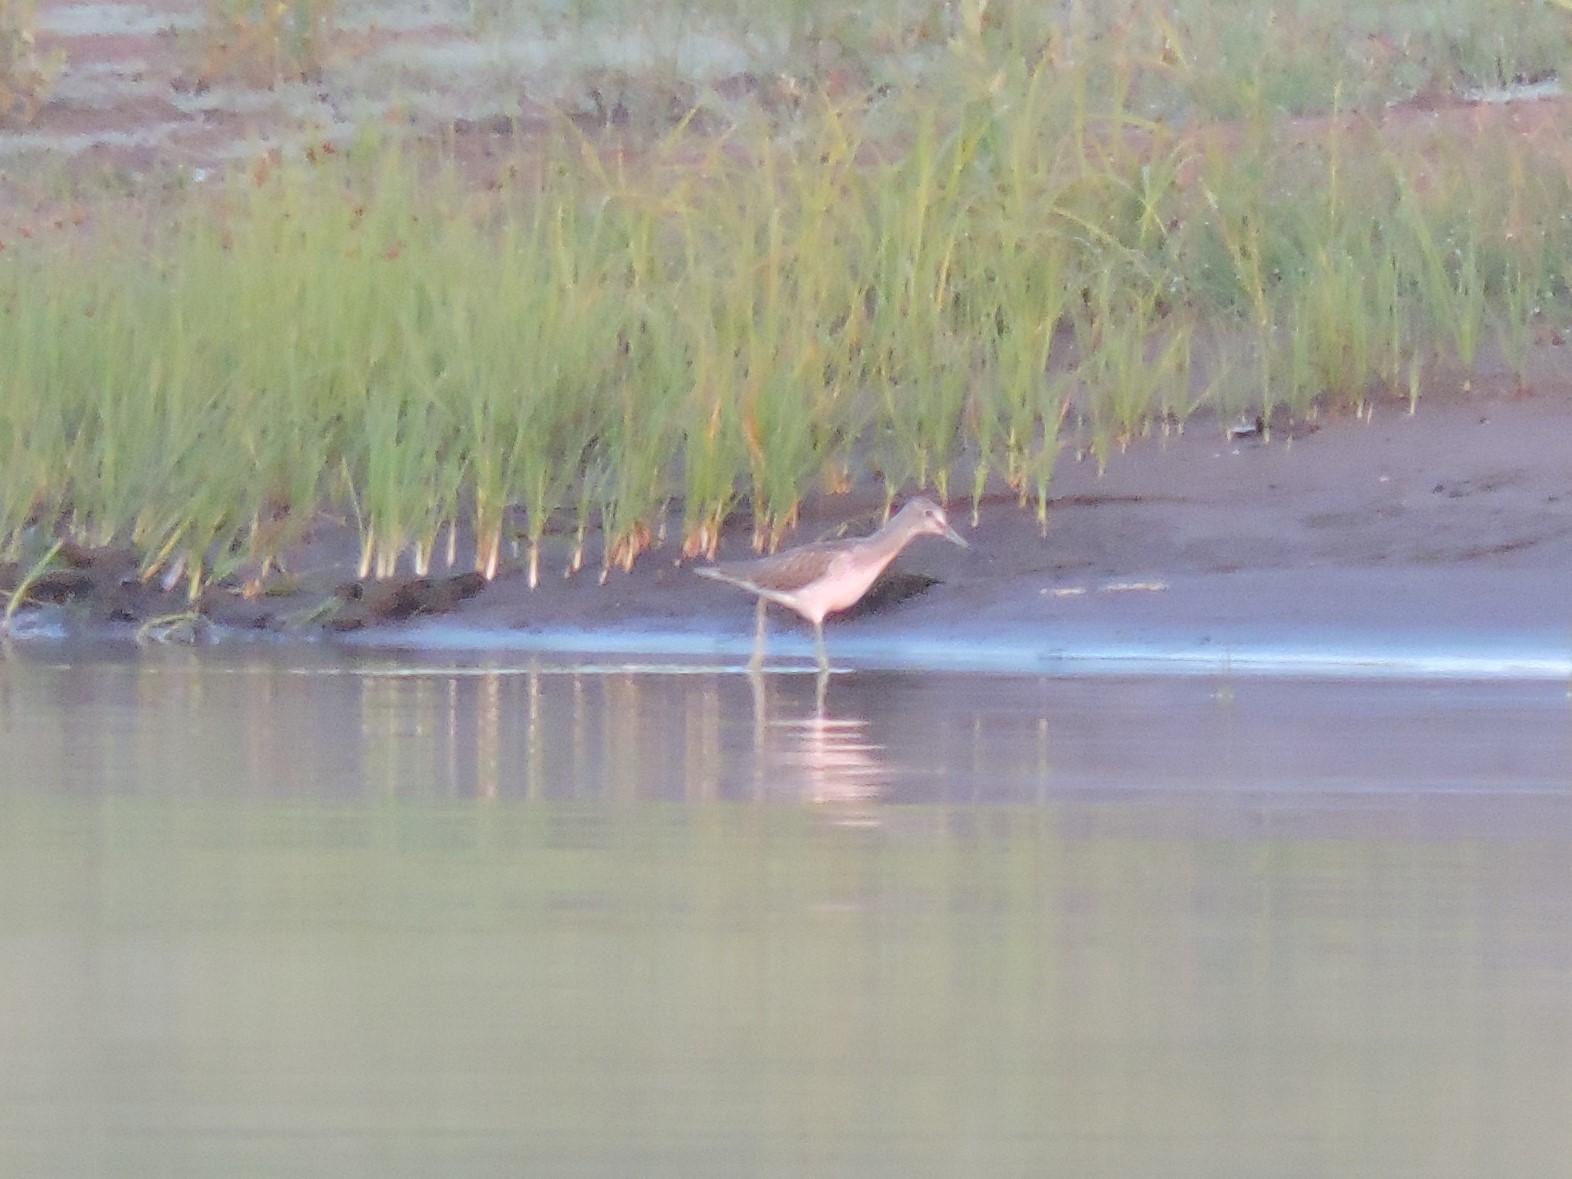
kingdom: Animalia
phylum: Chordata
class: Aves
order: Charadriiformes
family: Scolopacidae
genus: Tringa
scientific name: Tringa nebularia
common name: Common greenshank
